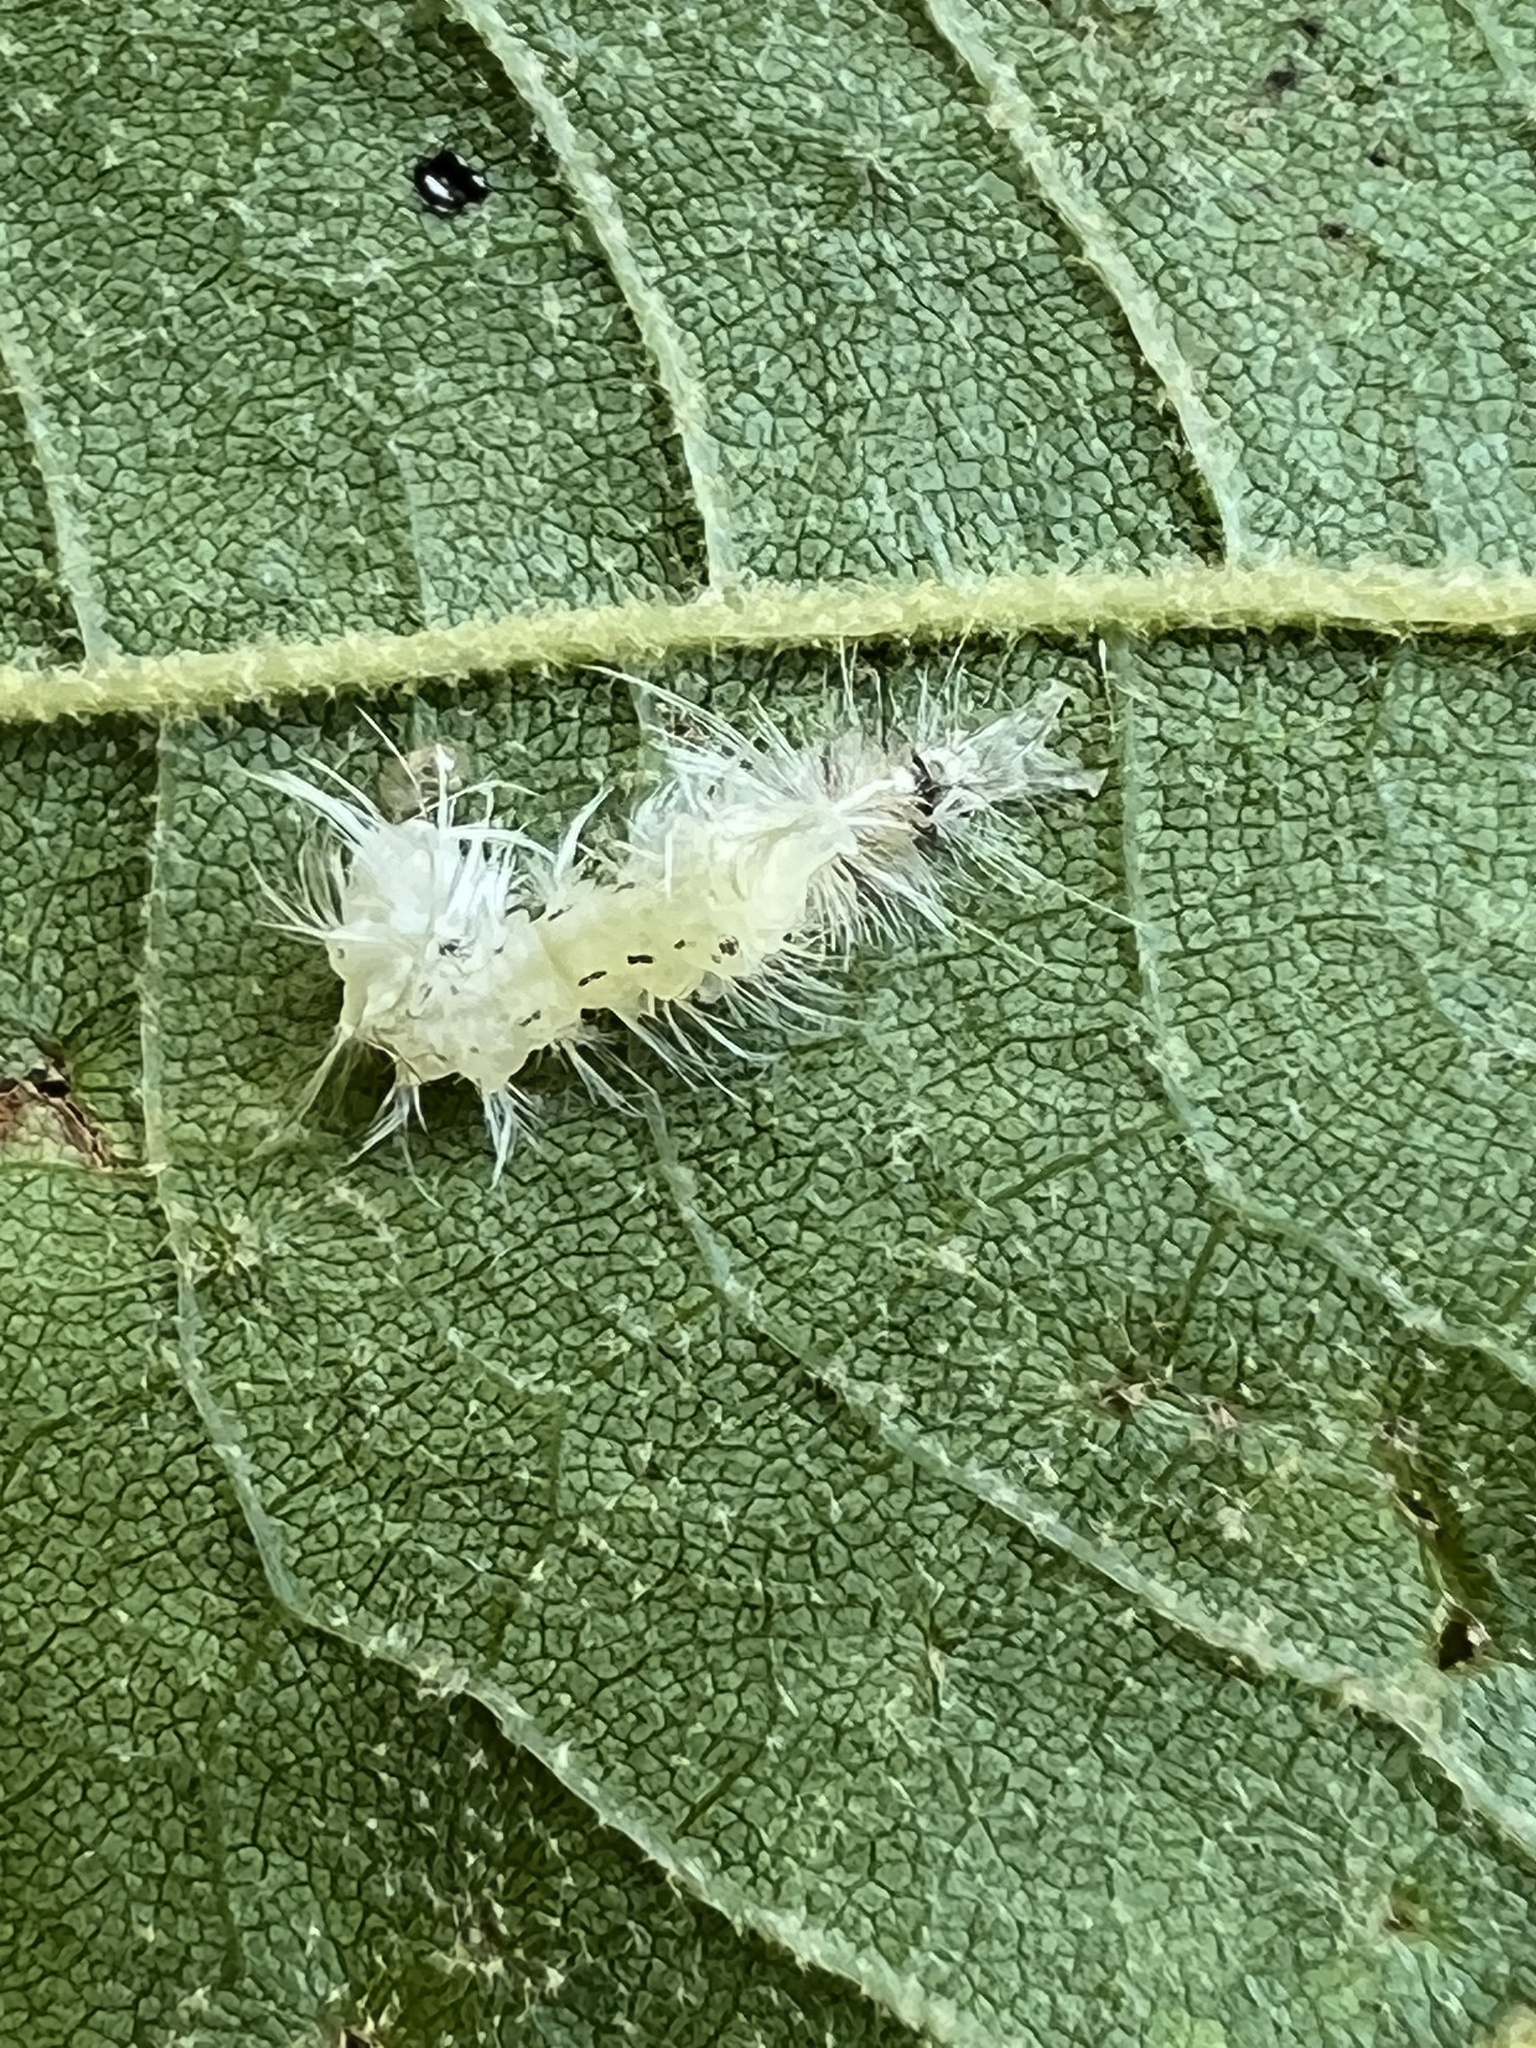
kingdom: Animalia
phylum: Arthropoda
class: Insecta
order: Lepidoptera
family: Apatelodidae
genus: Hygrochroa
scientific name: Hygrochroa Apatelodes torrefacta
